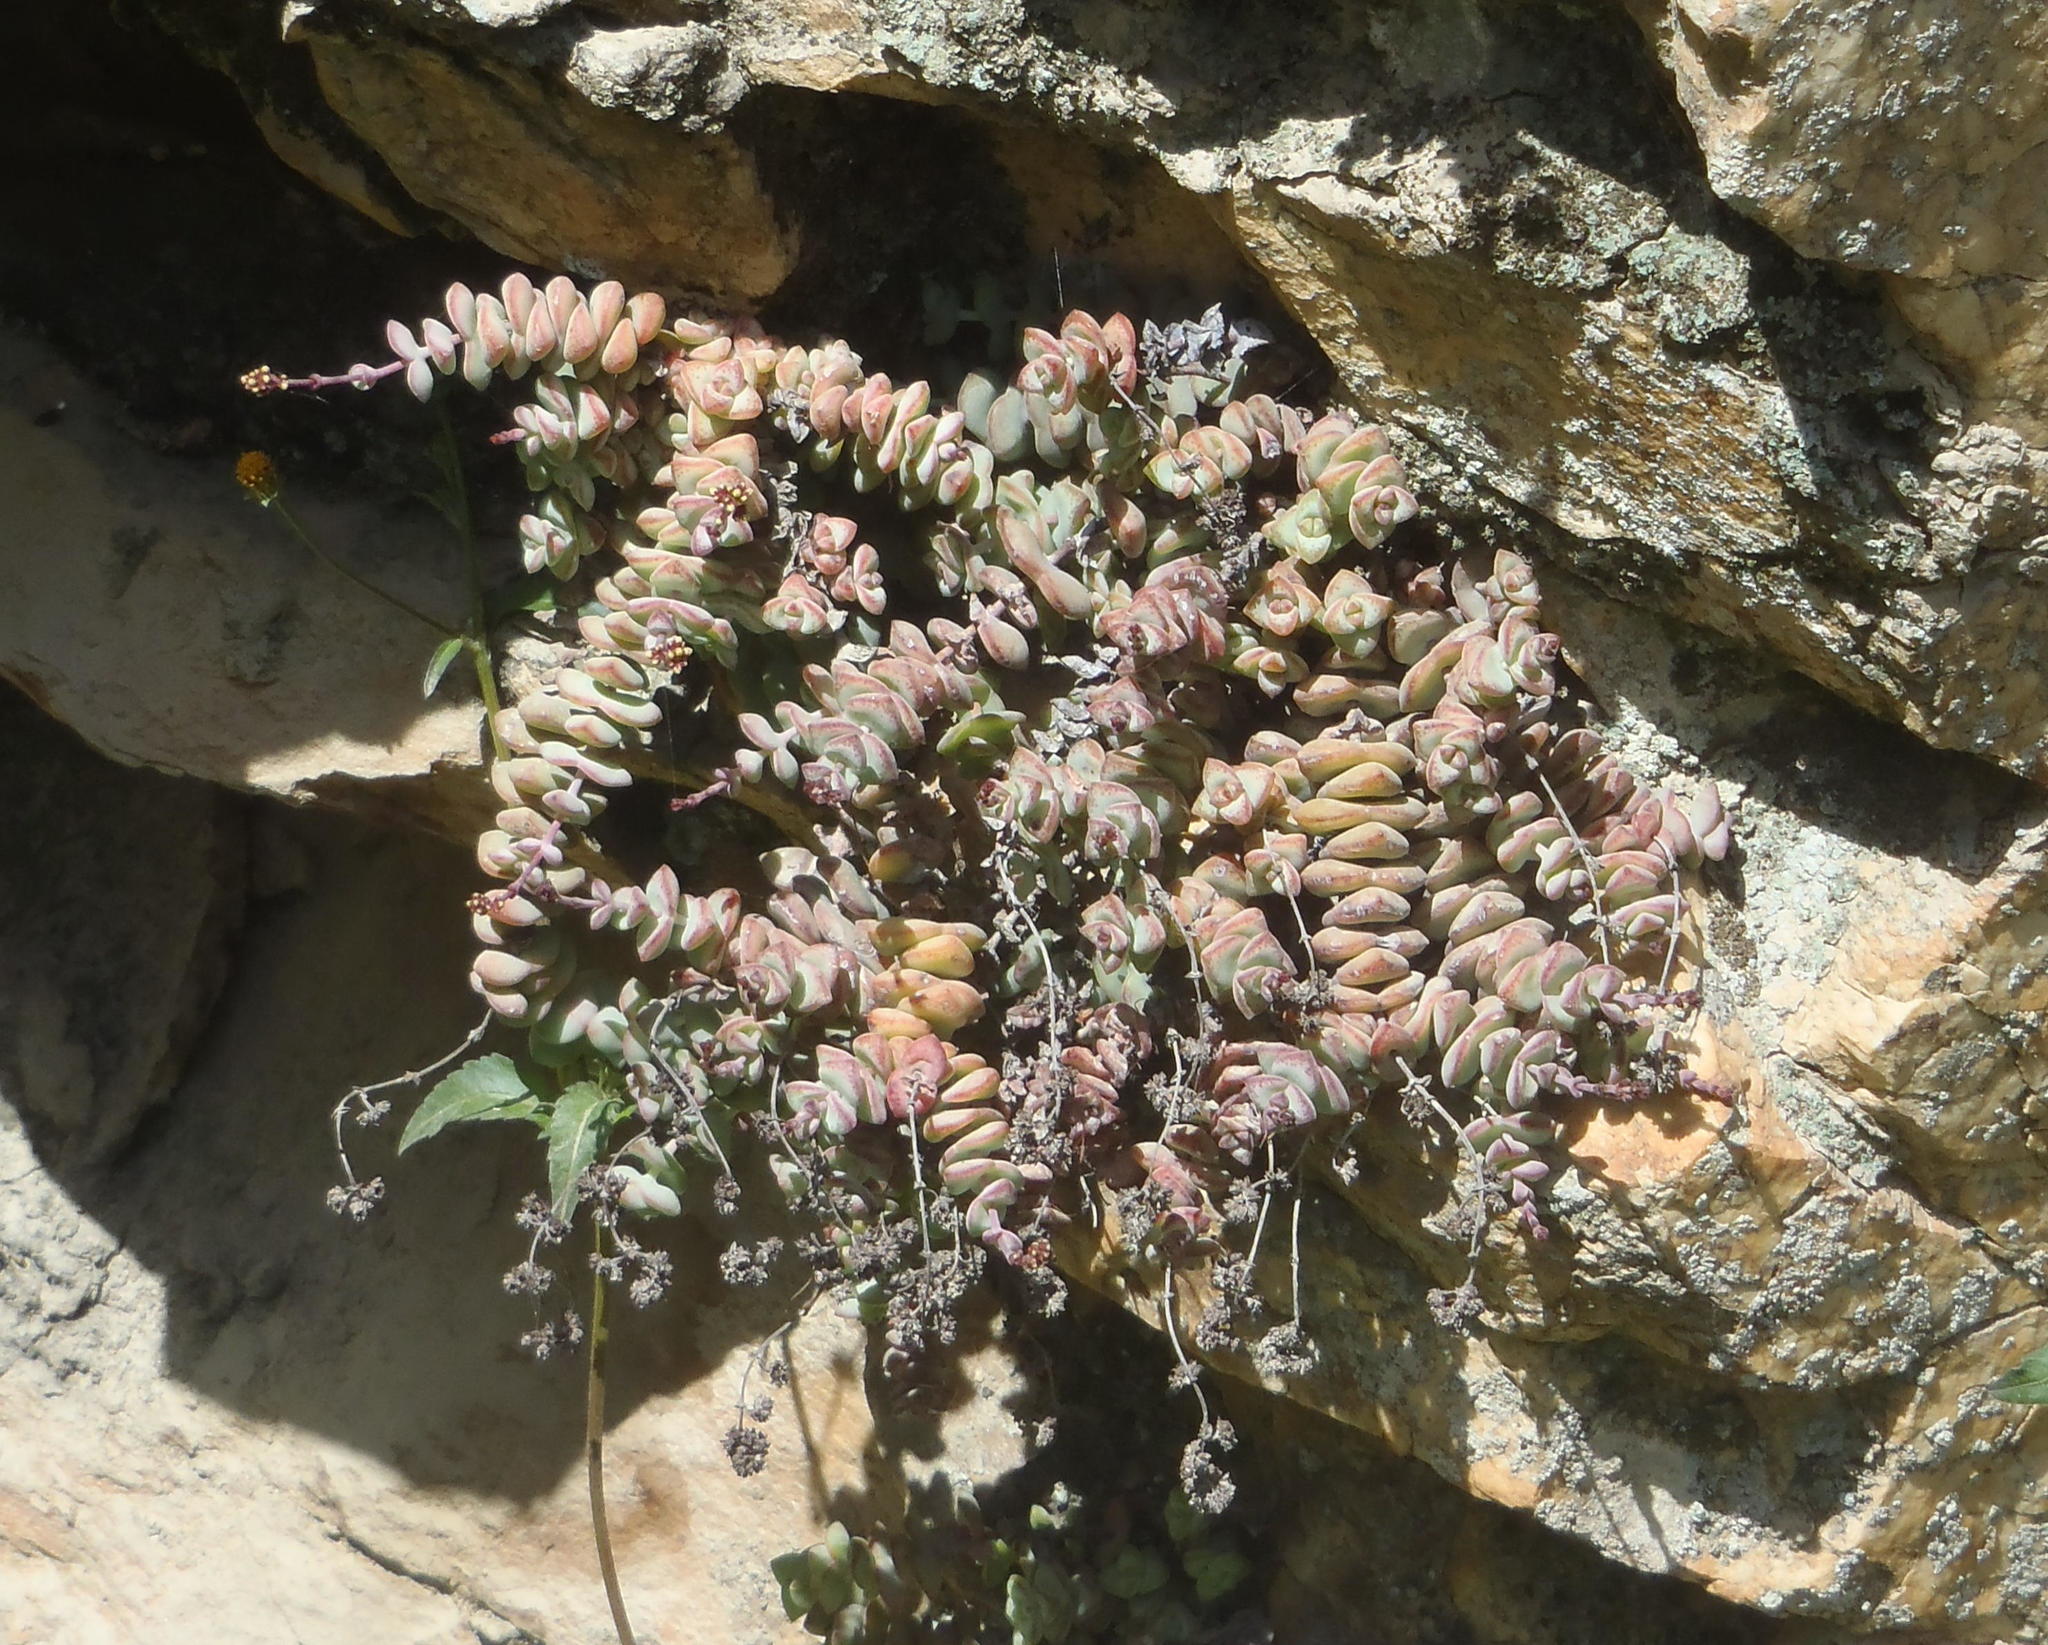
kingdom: Plantae
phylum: Tracheophyta
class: Magnoliopsida
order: Saxifragales
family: Crassulaceae
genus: Crassula
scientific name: Crassula perforata
